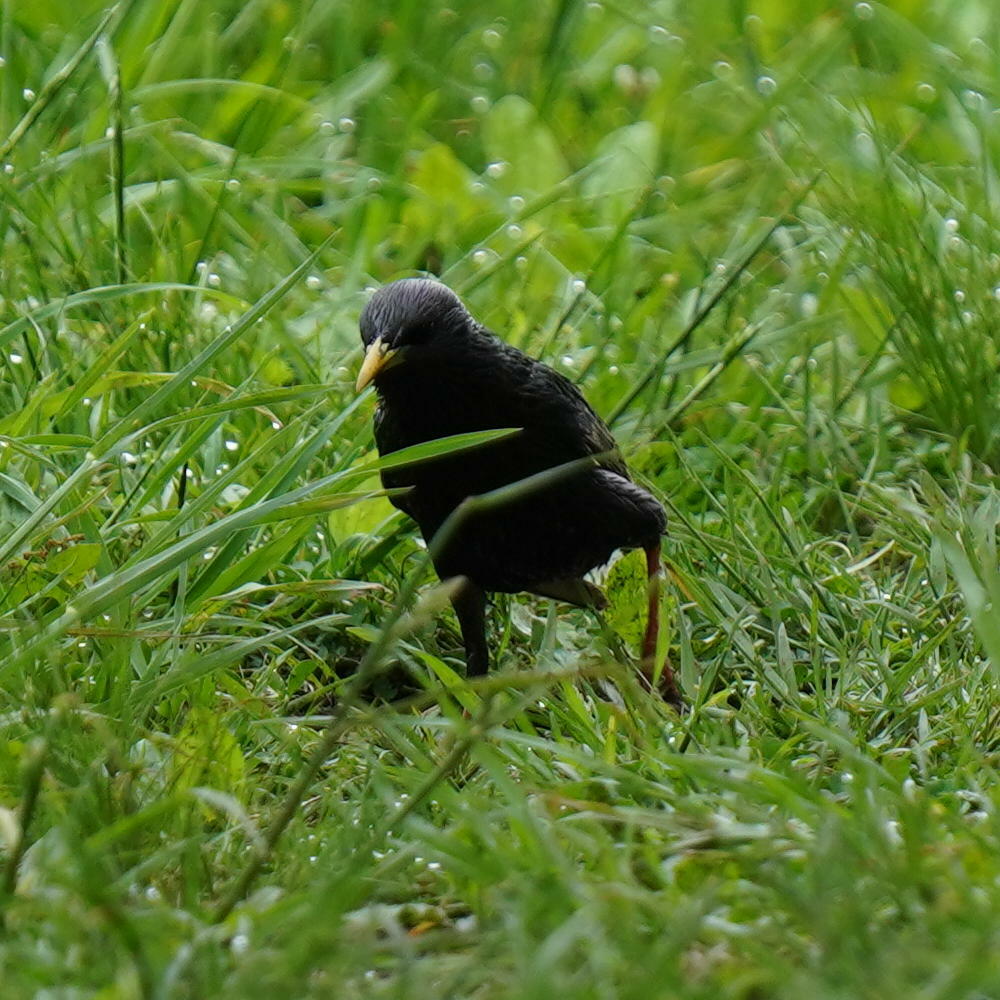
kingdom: Animalia
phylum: Chordata
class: Aves
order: Passeriformes
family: Sturnidae
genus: Sturnus
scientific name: Sturnus vulgaris
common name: Common starling
